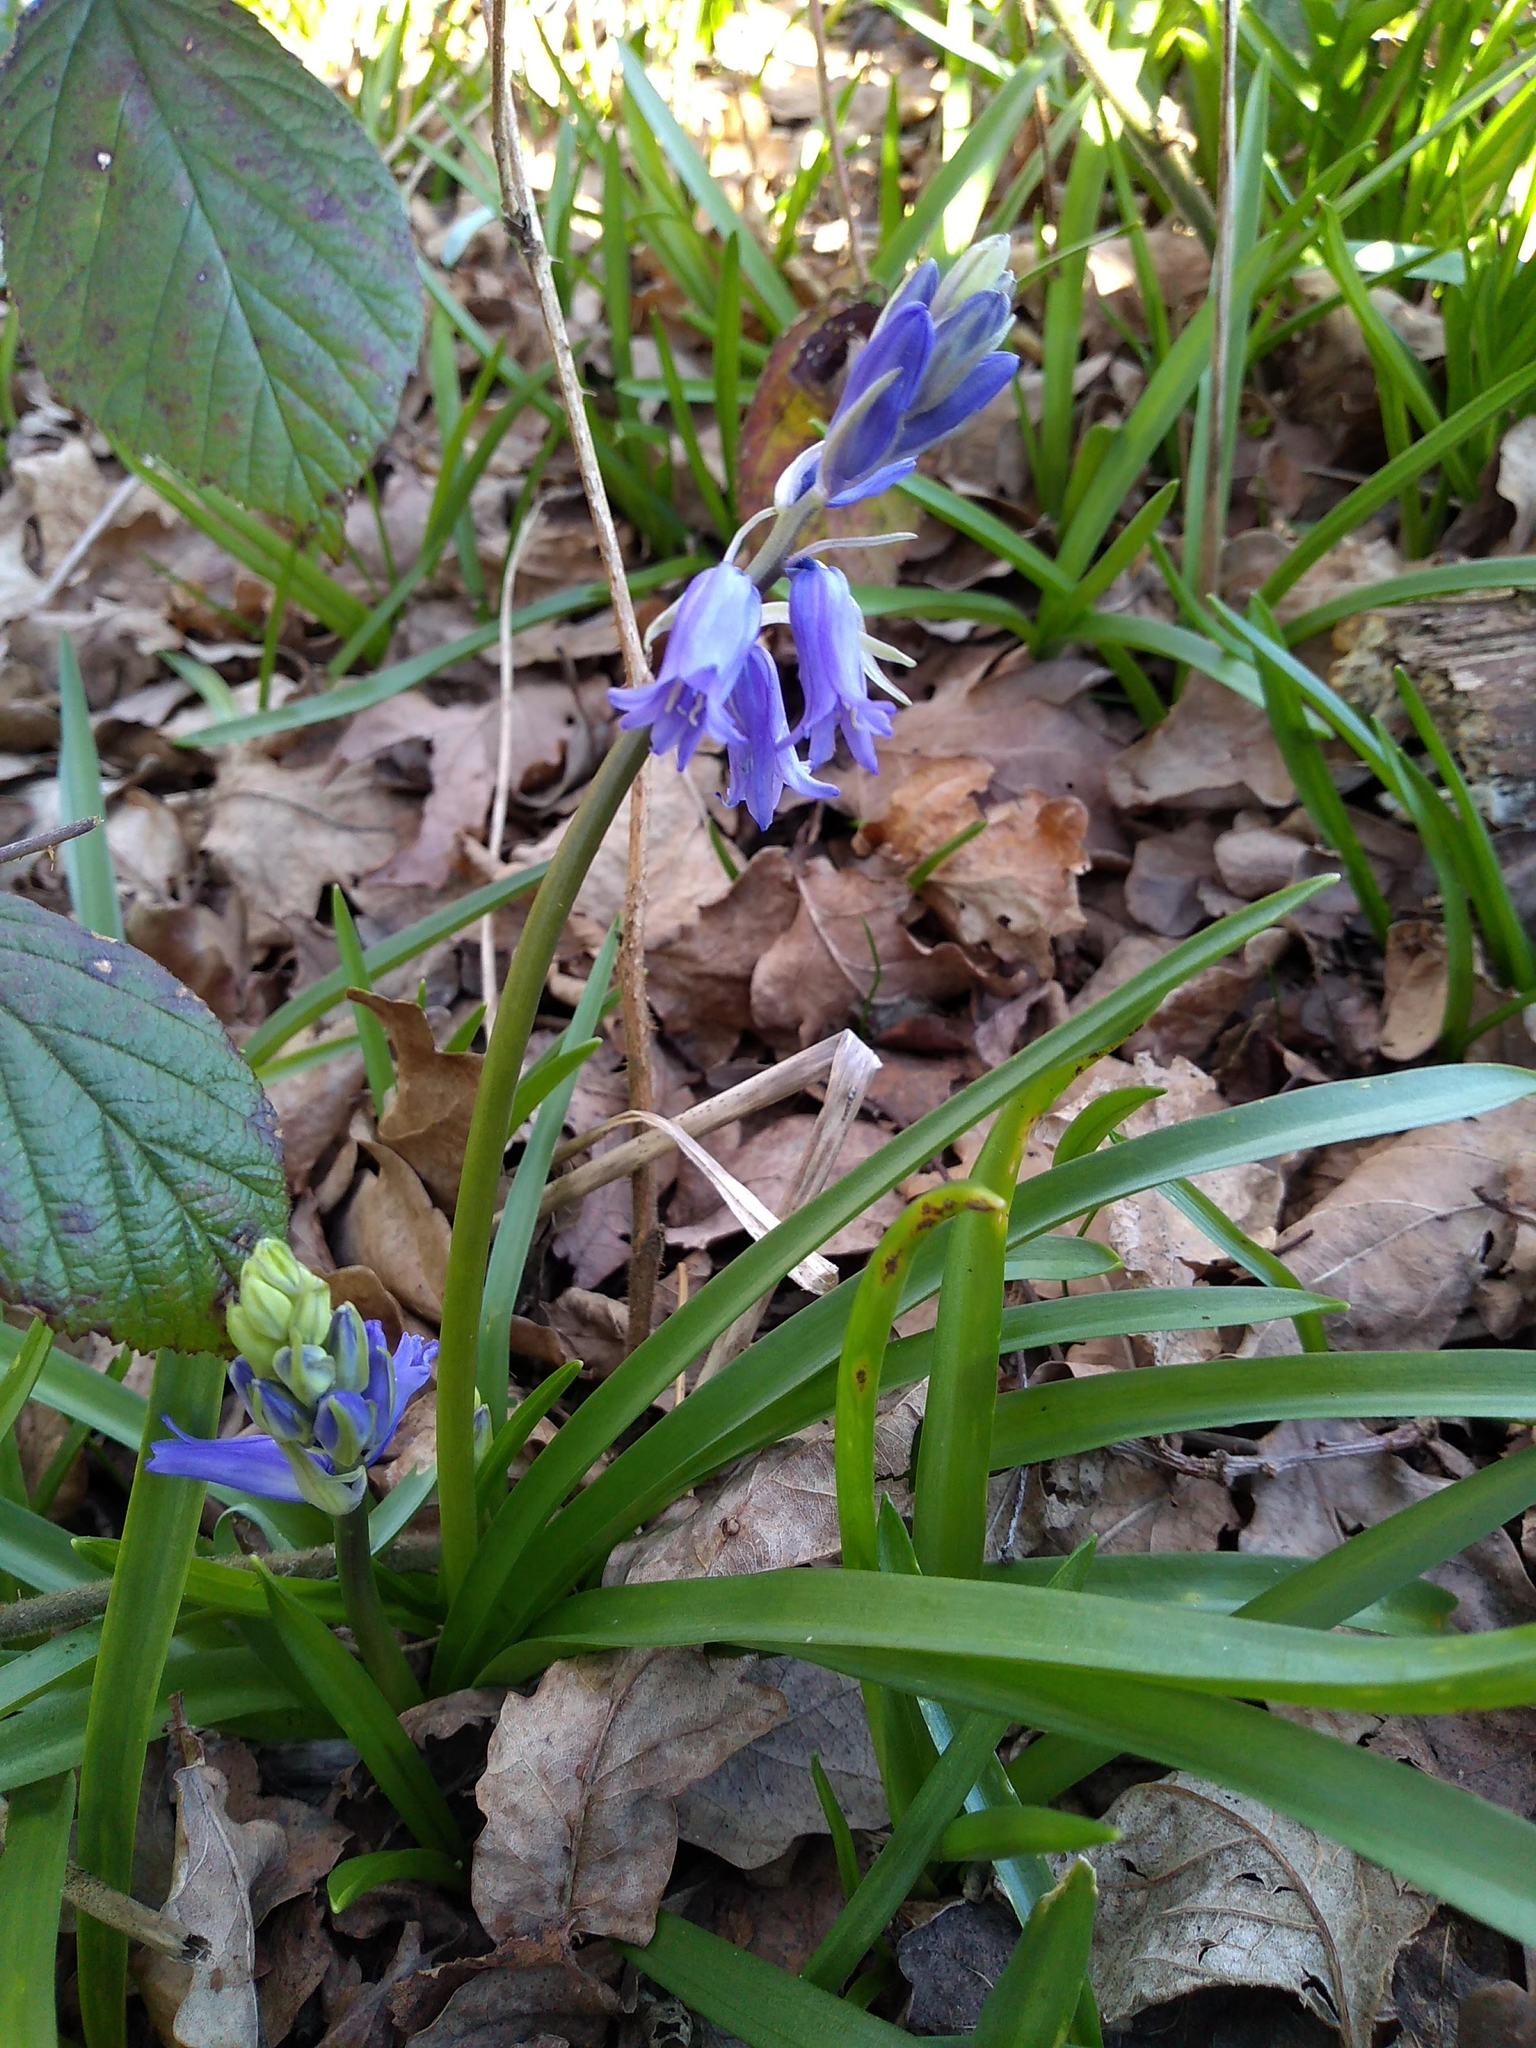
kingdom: Plantae
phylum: Tracheophyta
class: Liliopsida
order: Asparagales
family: Asparagaceae
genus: Hyacinthoides
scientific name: Hyacinthoides non-scripta
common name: Bluebell
